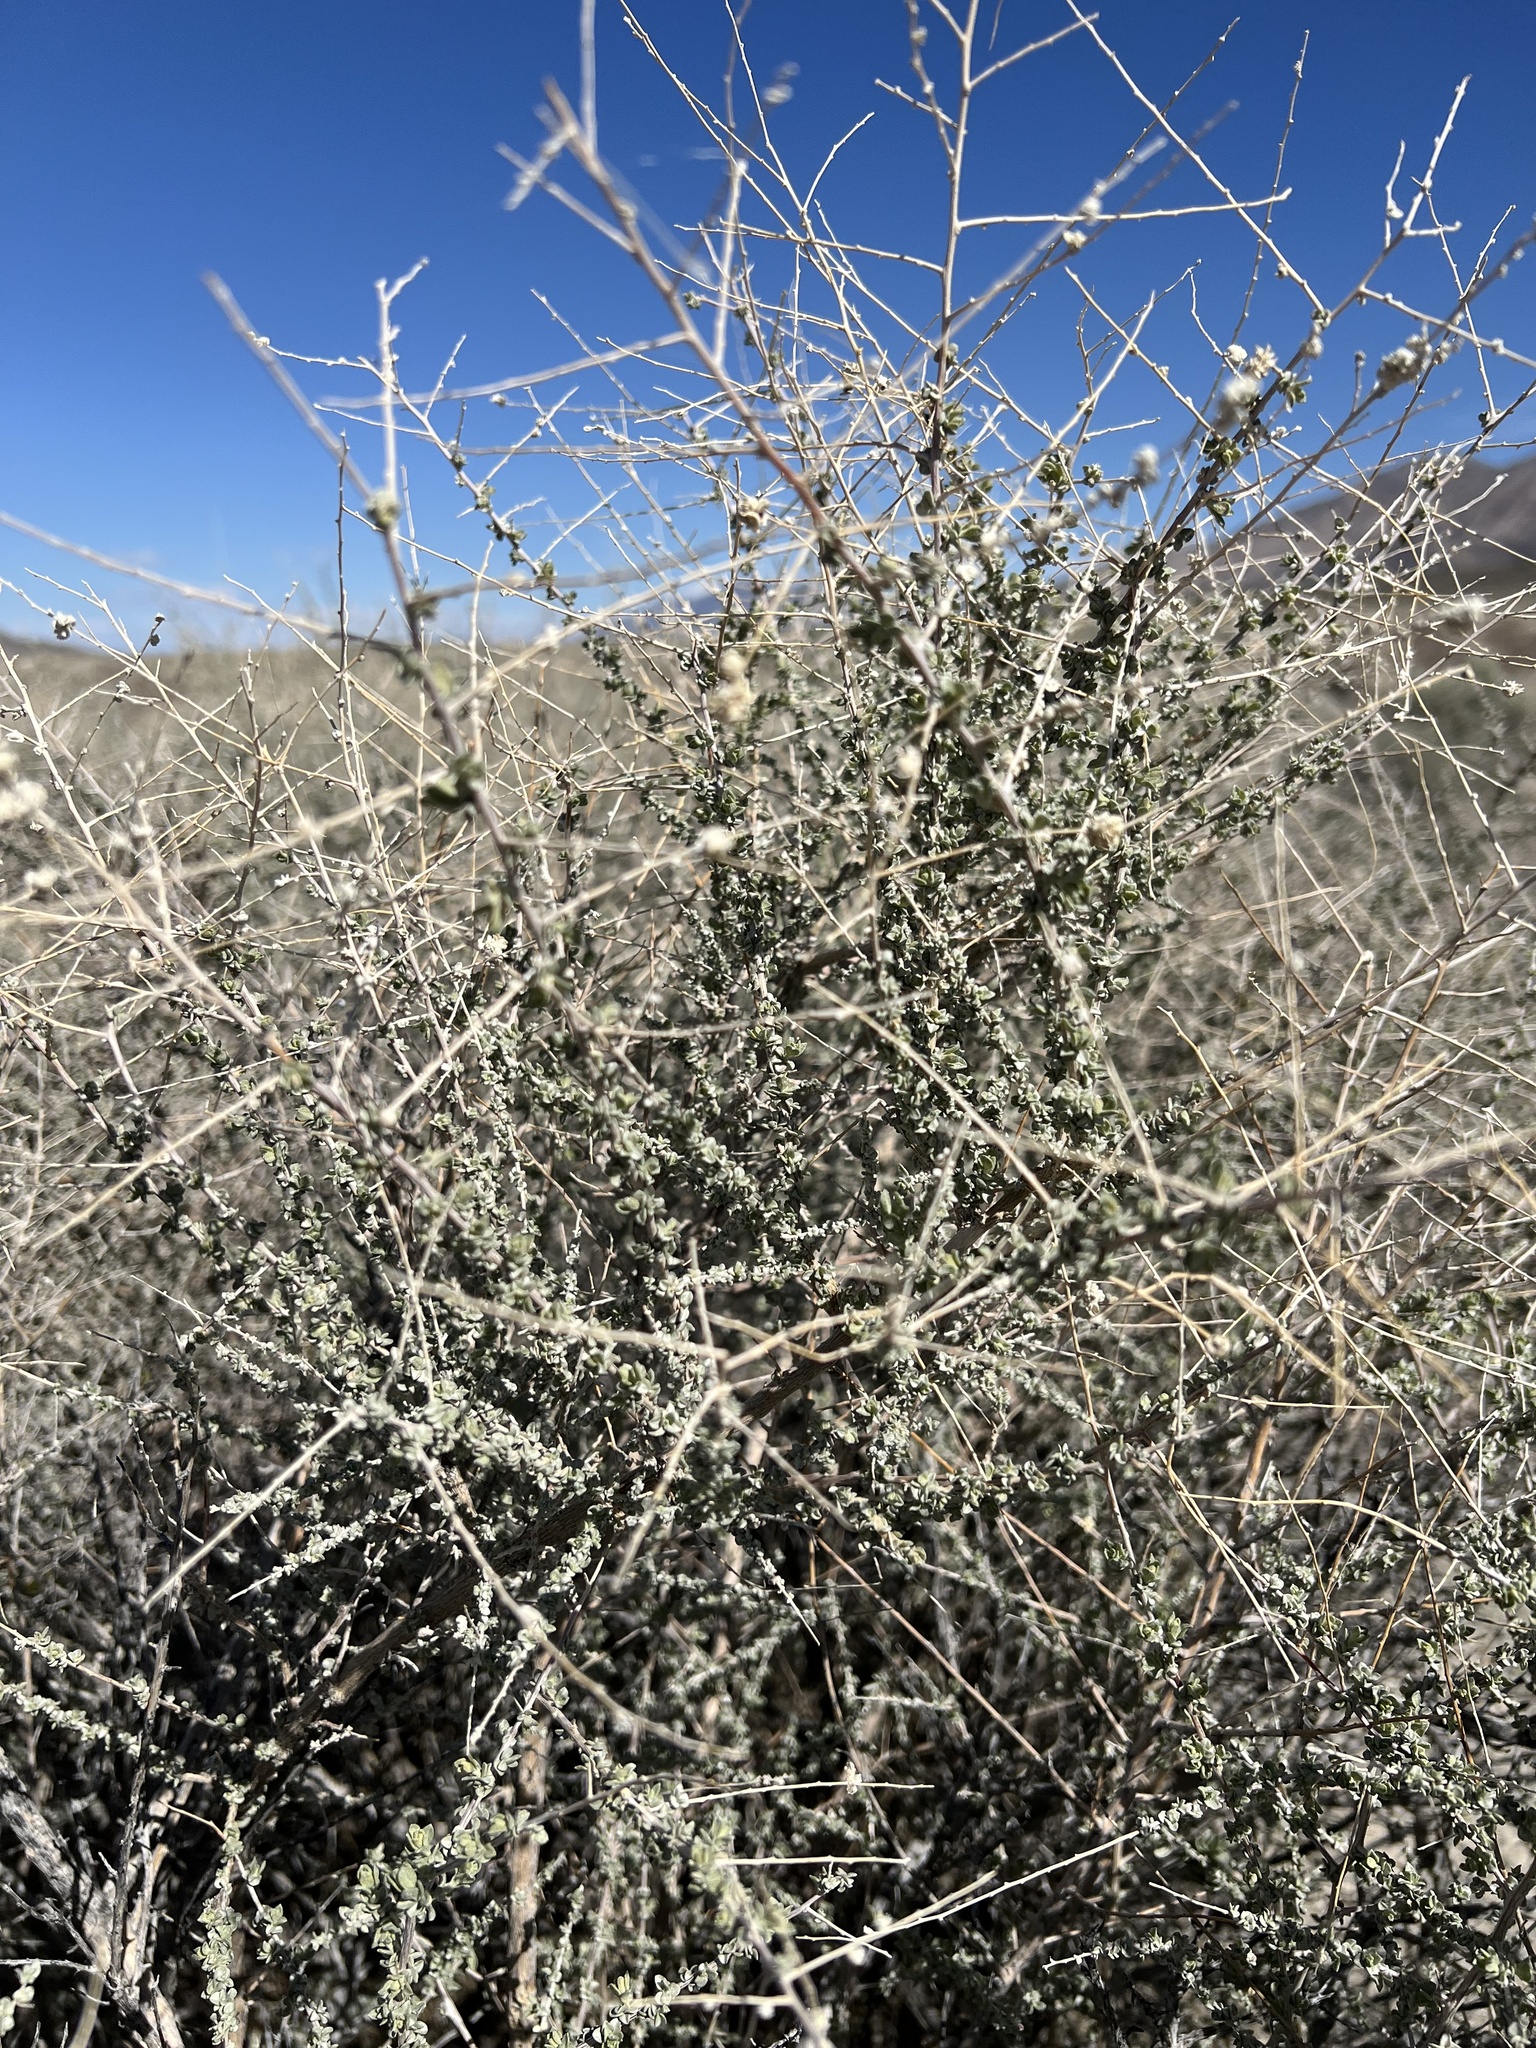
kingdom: Plantae
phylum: Tracheophyta
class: Magnoliopsida
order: Caryophyllales
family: Amaranthaceae
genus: Atriplex
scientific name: Atriplex polycarpa
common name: Desert saltbush
